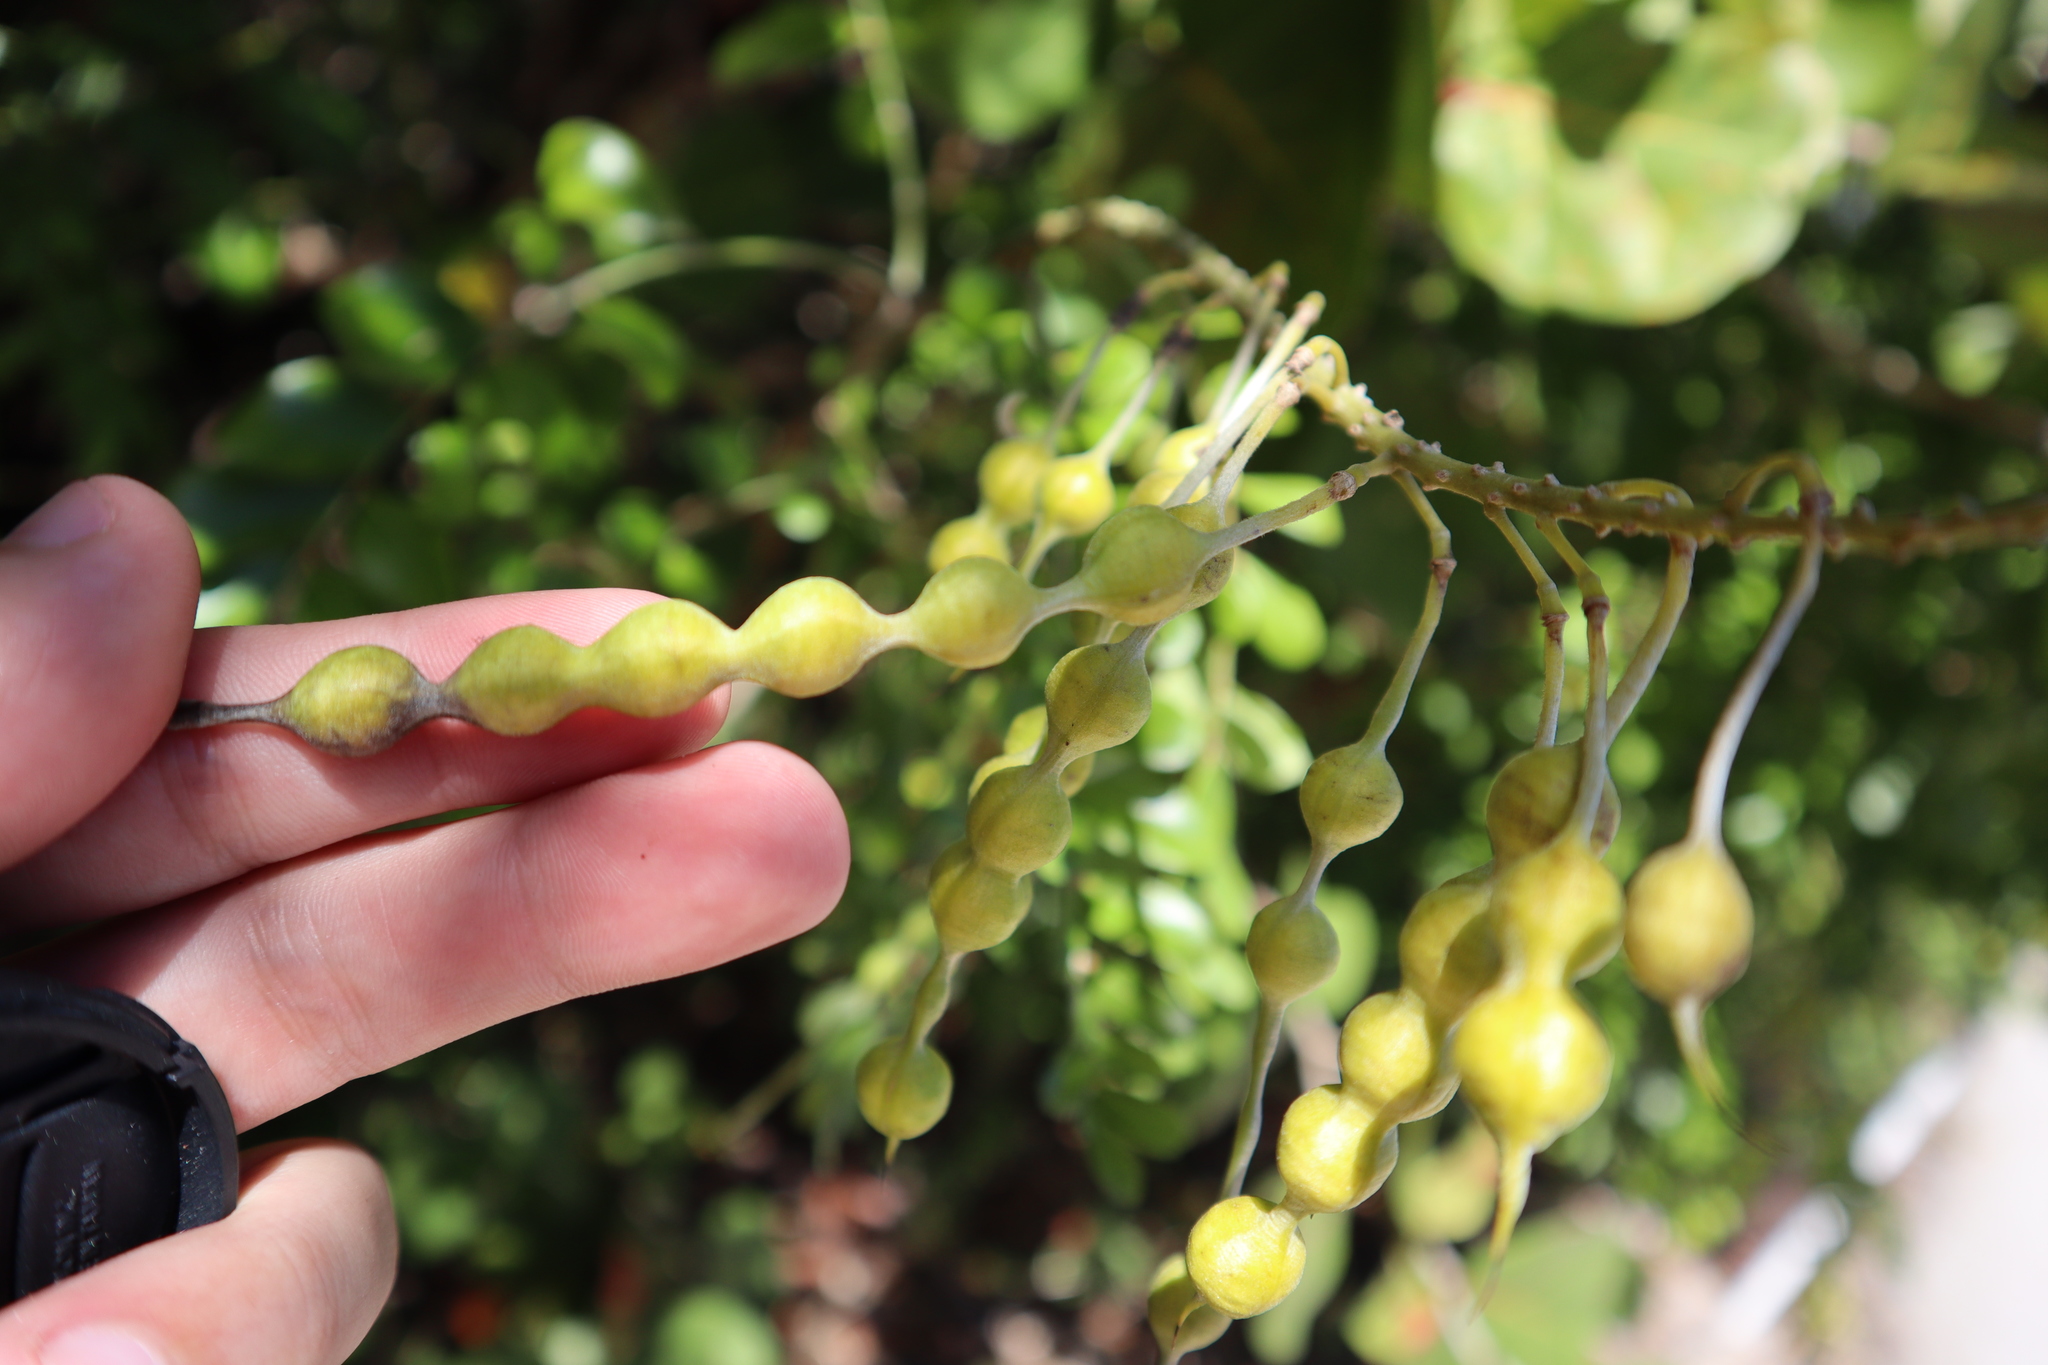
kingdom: Plantae
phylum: Tracheophyta
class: Magnoliopsida
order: Fabales
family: Fabaceae
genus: Sophora
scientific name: Sophora tomentosa
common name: Yellow necklacepod
